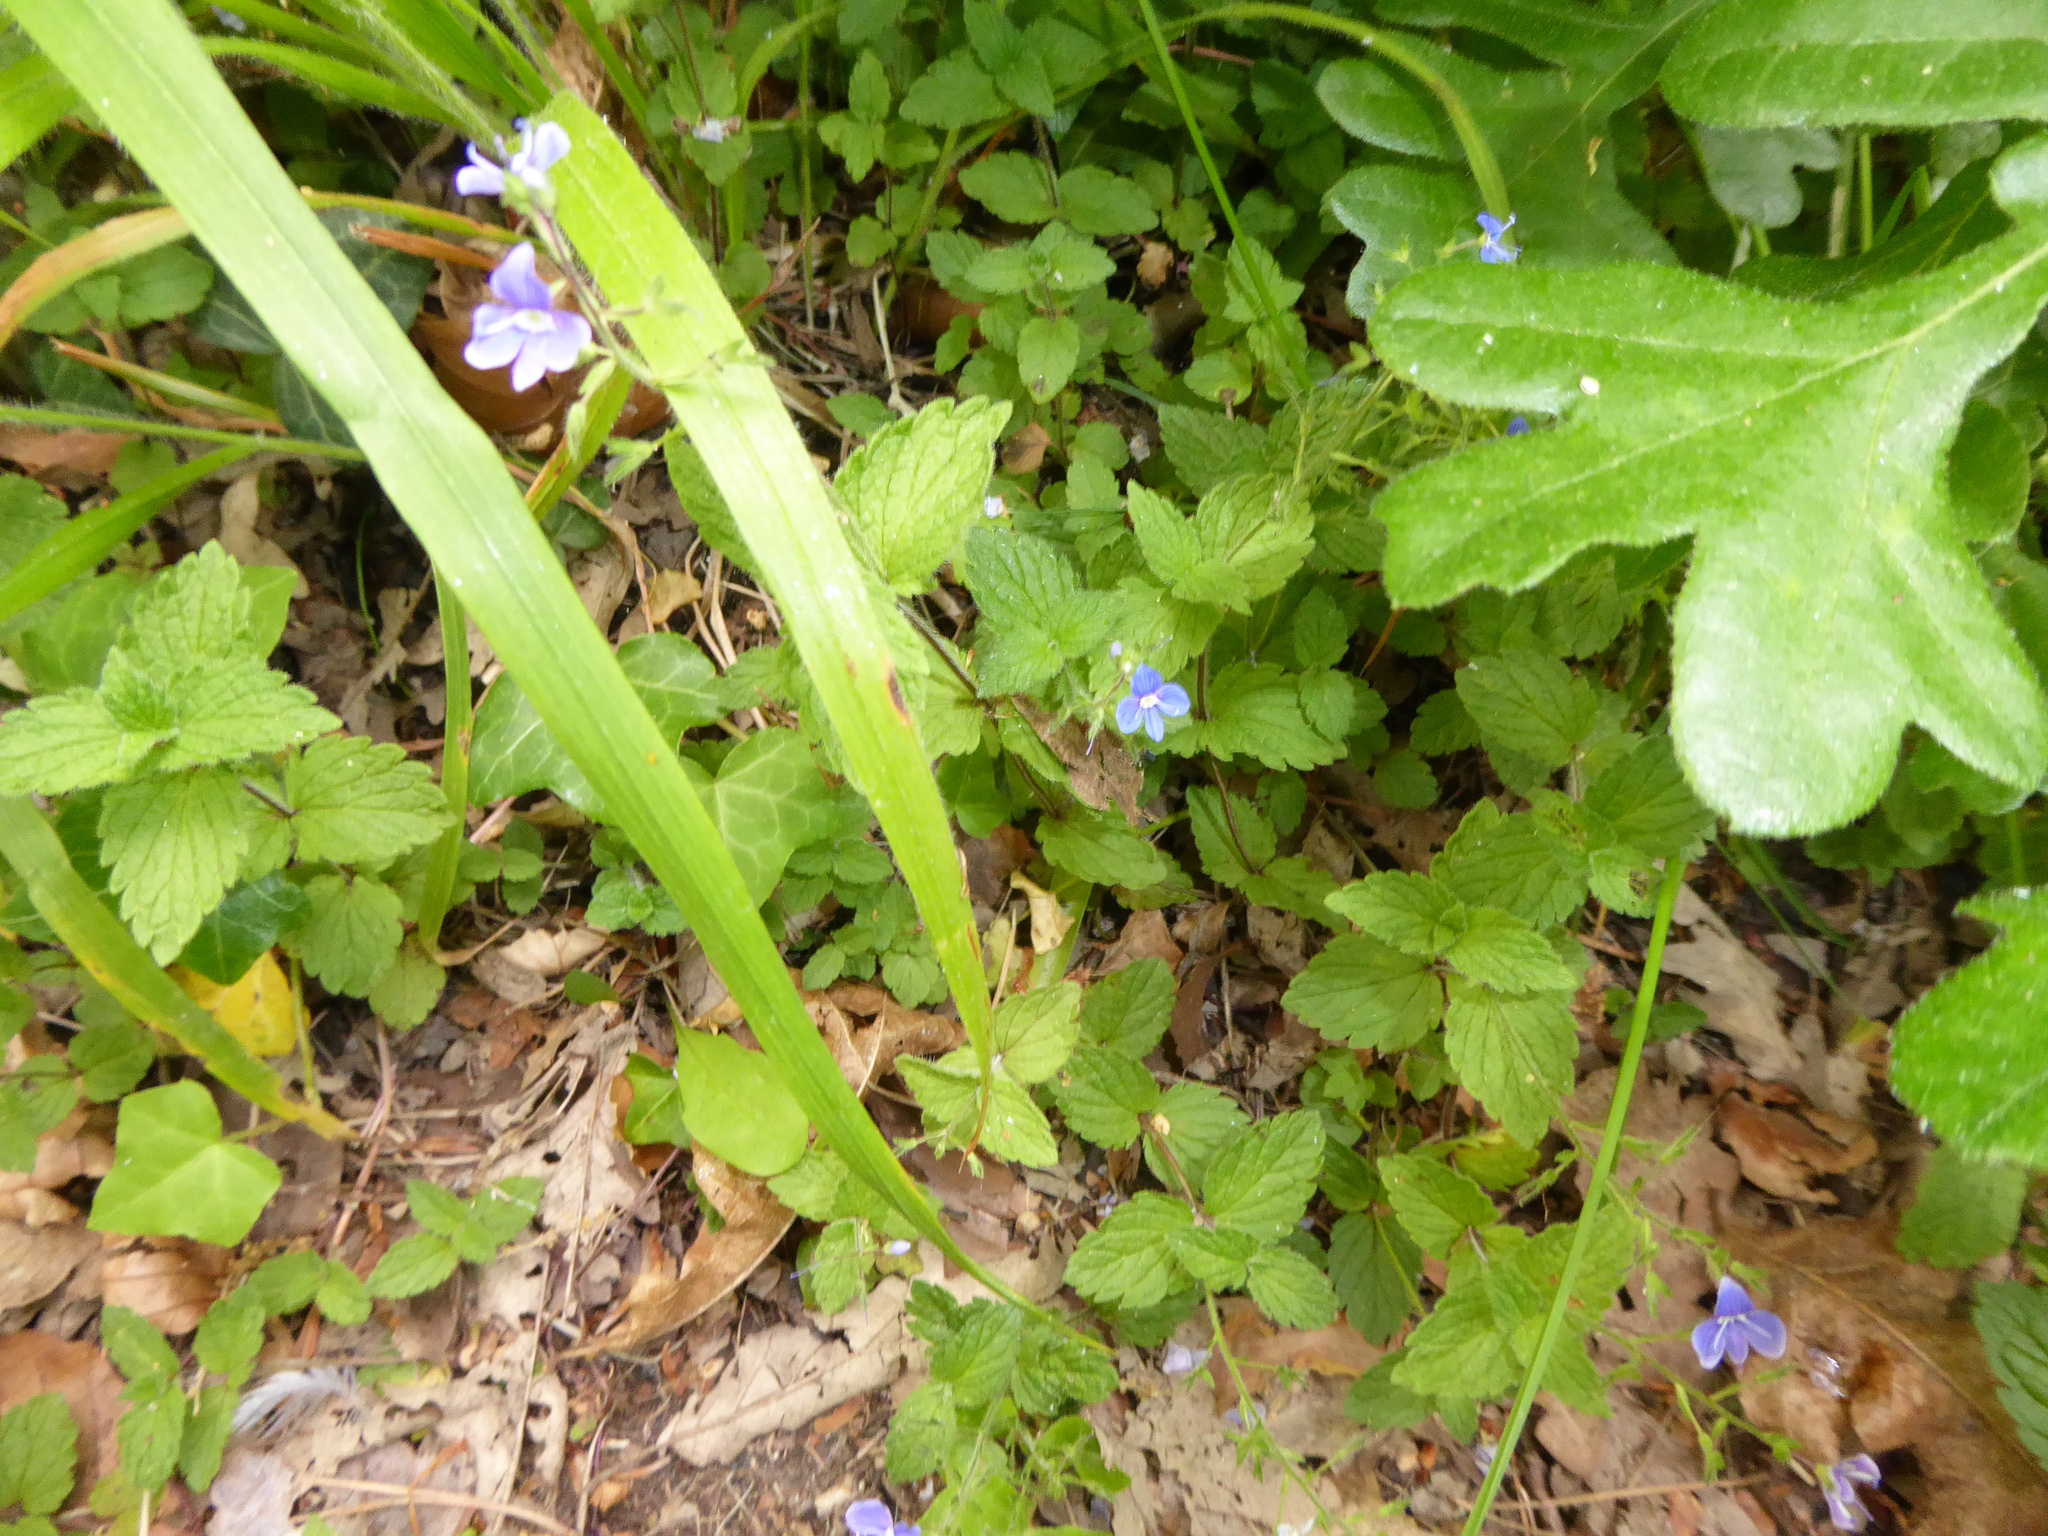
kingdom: Plantae
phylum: Tracheophyta
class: Magnoliopsida
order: Lamiales
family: Plantaginaceae
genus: Veronica
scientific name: Veronica chamaedrys
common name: Germander speedwell
